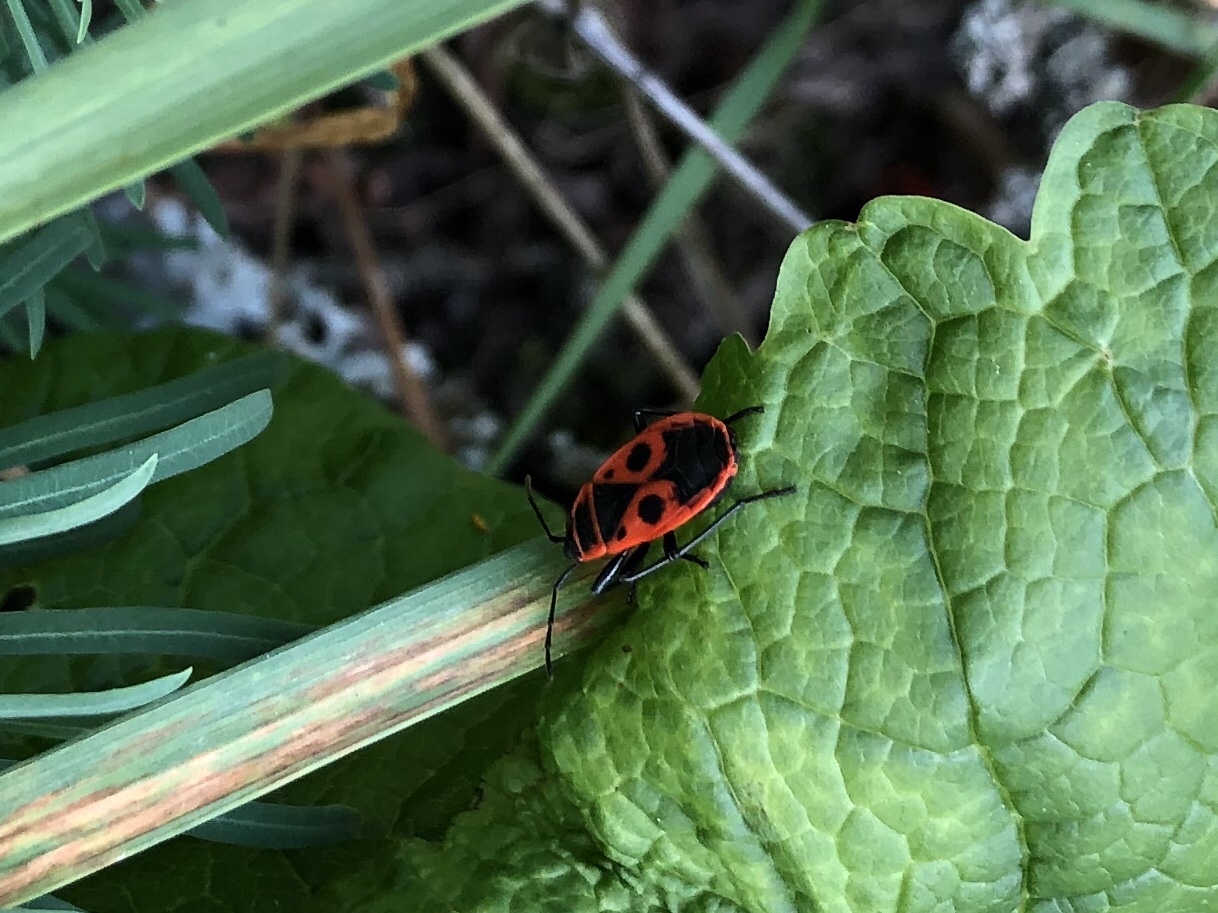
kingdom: Animalia
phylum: Arthropoda
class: Insecta
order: Hemiptera
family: Pyrrhocoridae
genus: Pyrrhocoris
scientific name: Pyrrhocoris apterus
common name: Firebug
